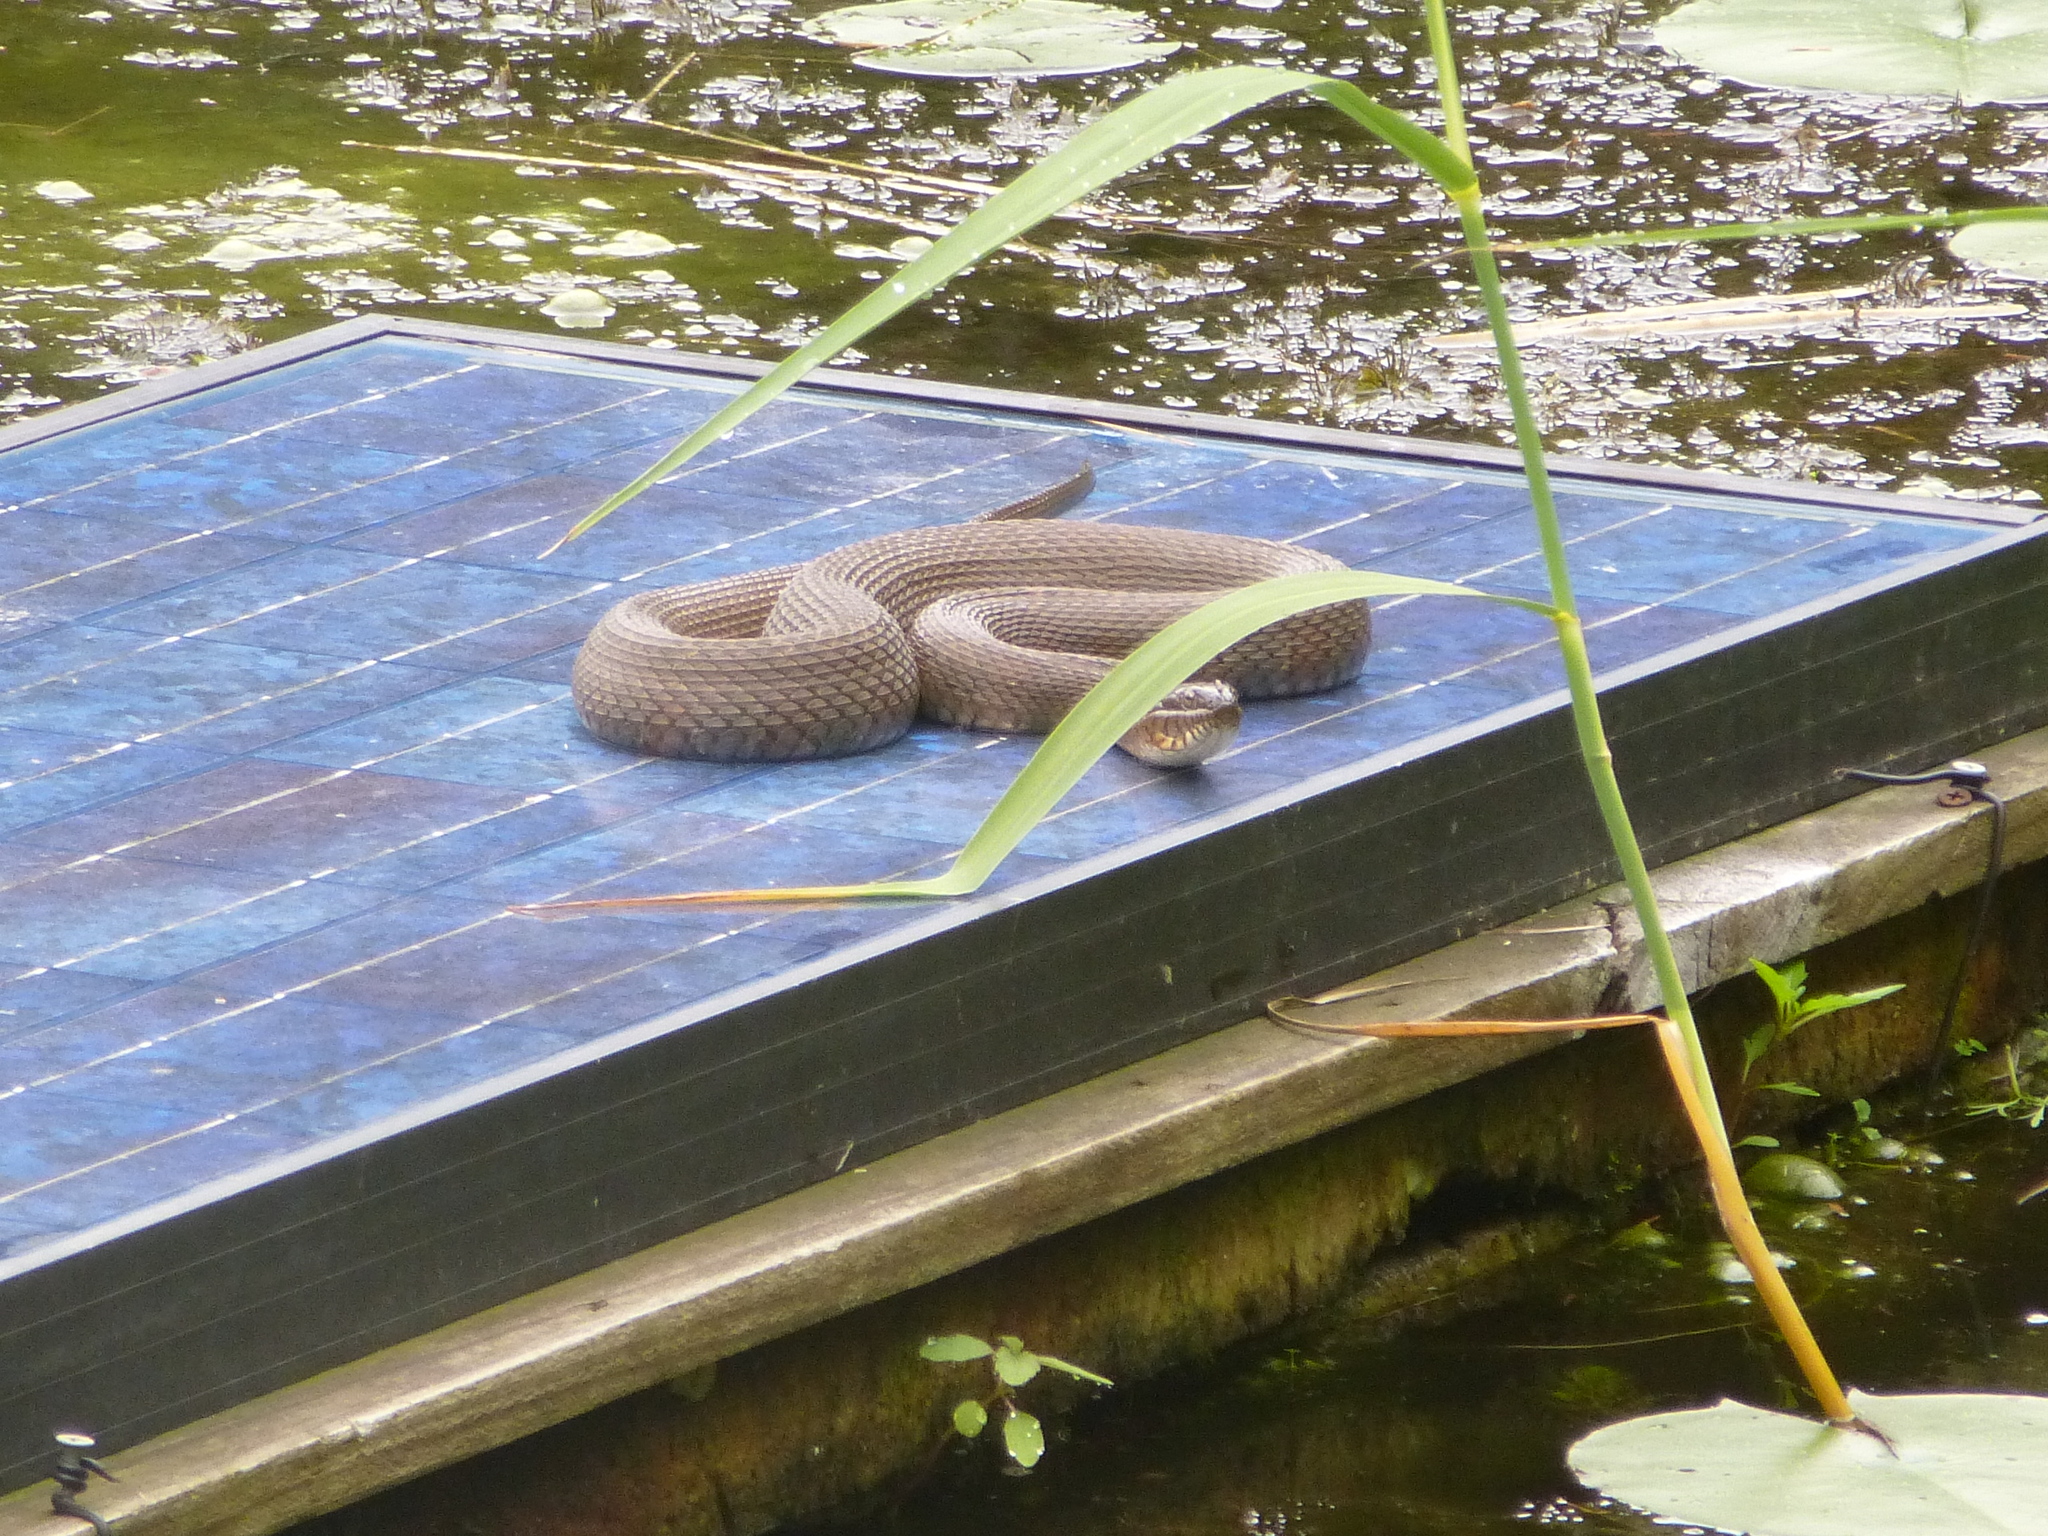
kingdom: Animalia
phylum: Chordata
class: Squamata
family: Colubridae
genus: Nerodia
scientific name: Nerodia sipedon
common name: Northern water snake
